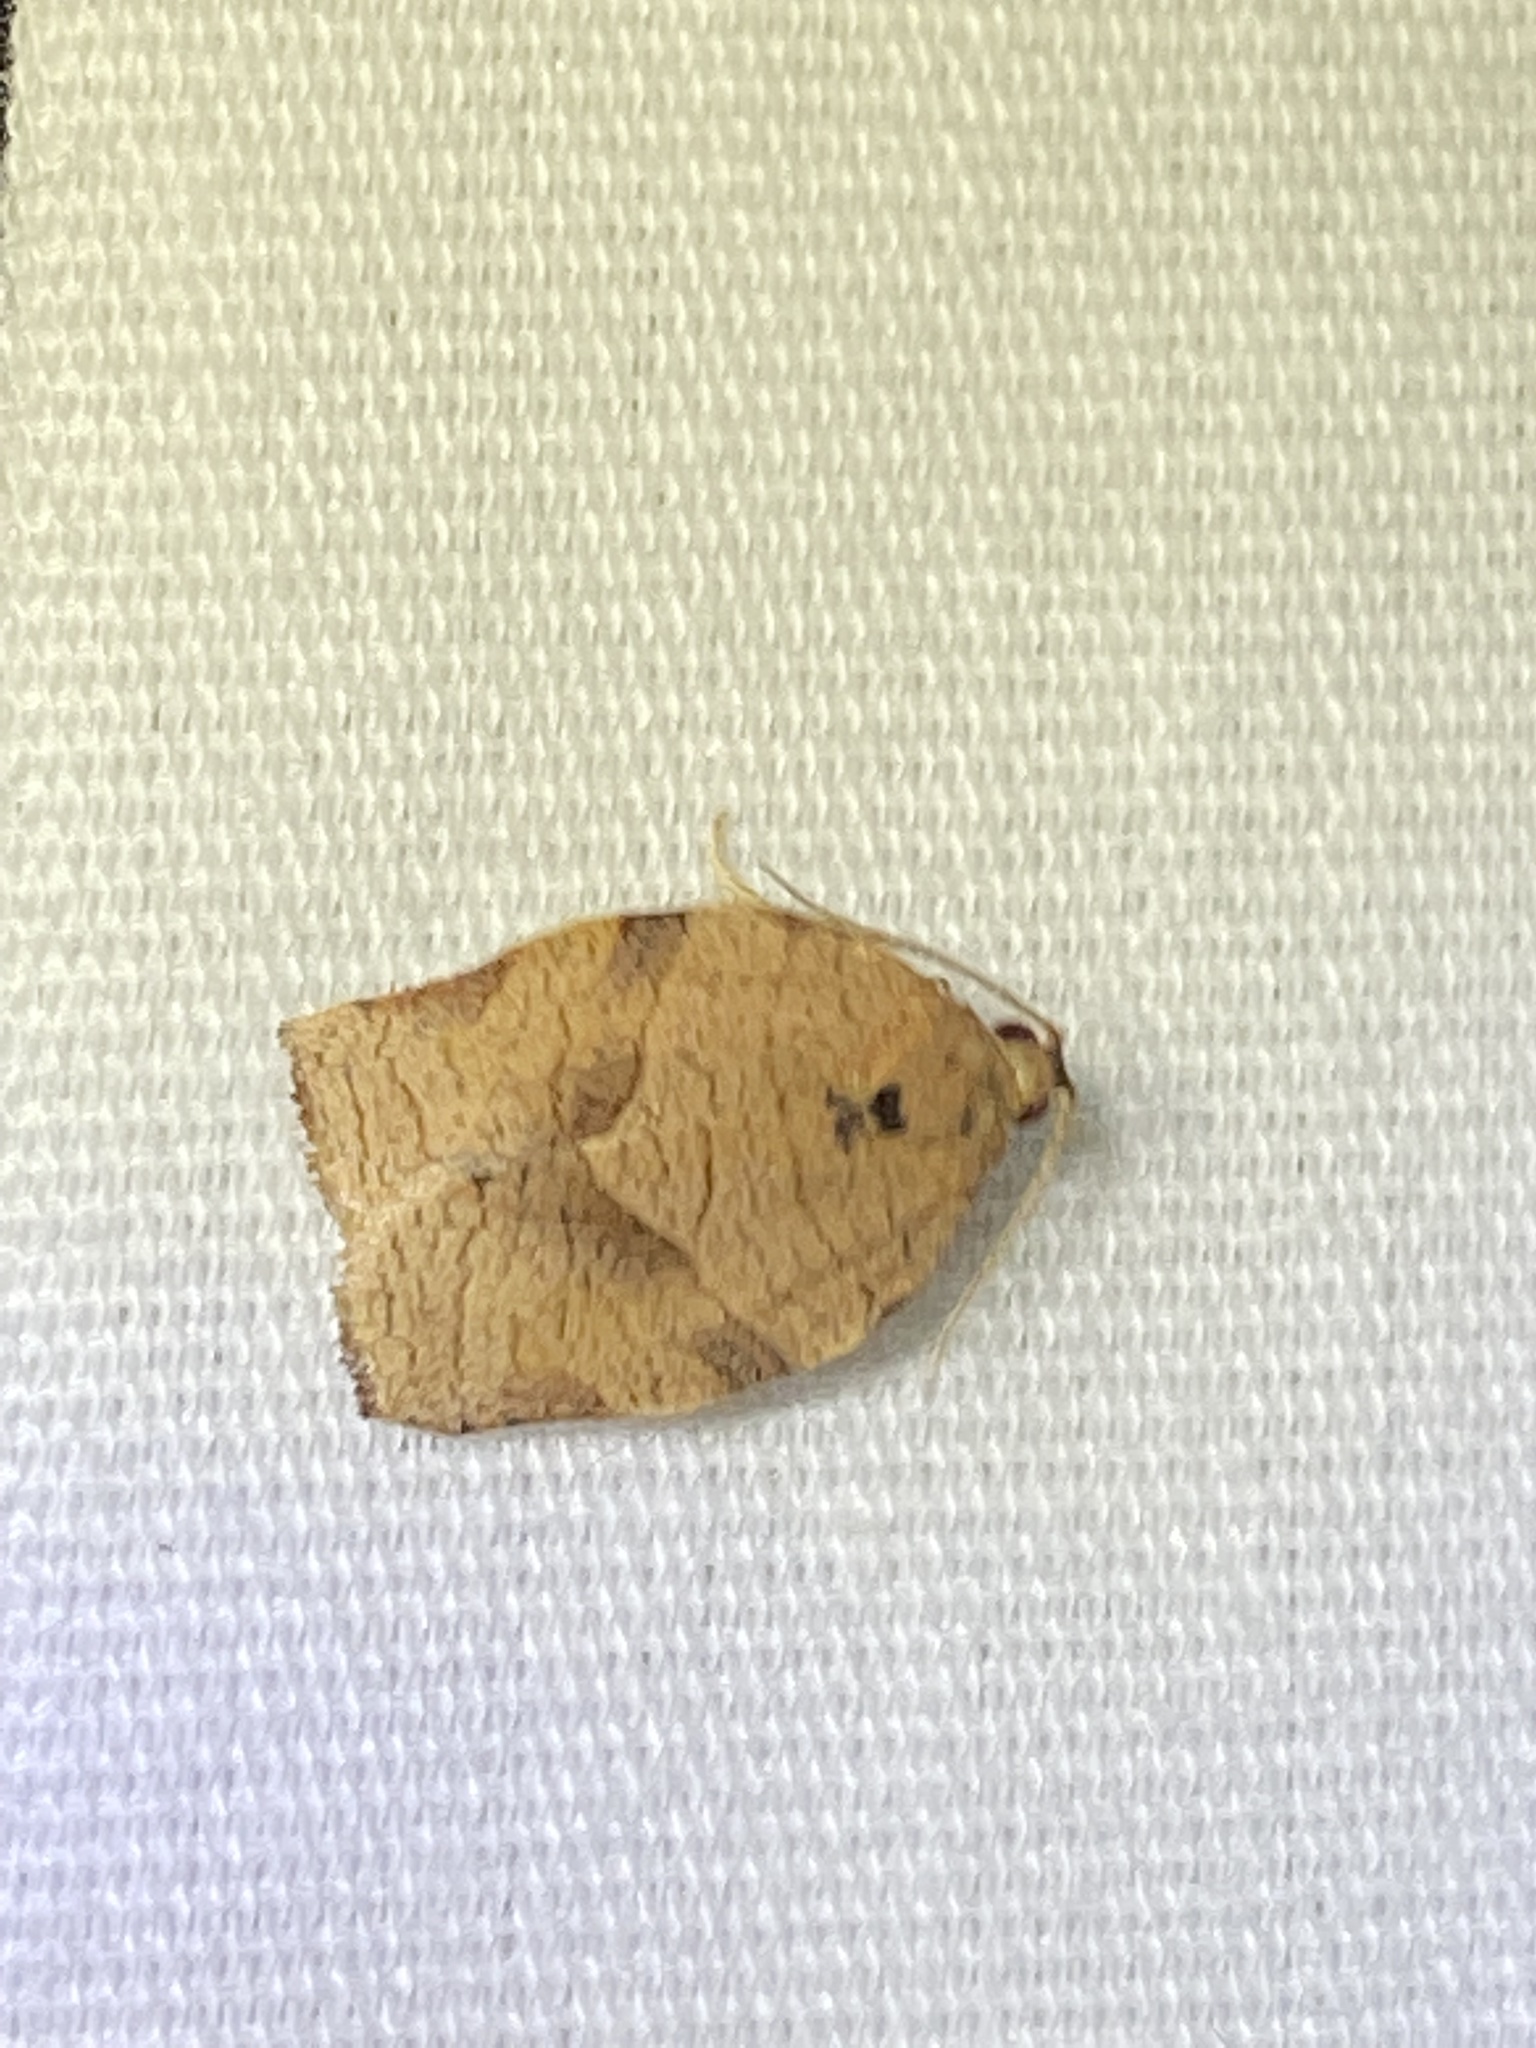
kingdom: Animalia
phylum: Arthropoda
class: Insecta
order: Lepidoptera
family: Tortricidae
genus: Choristoneura
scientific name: Choristoneura rosaceana
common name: Oblique-banded leafroller moth
